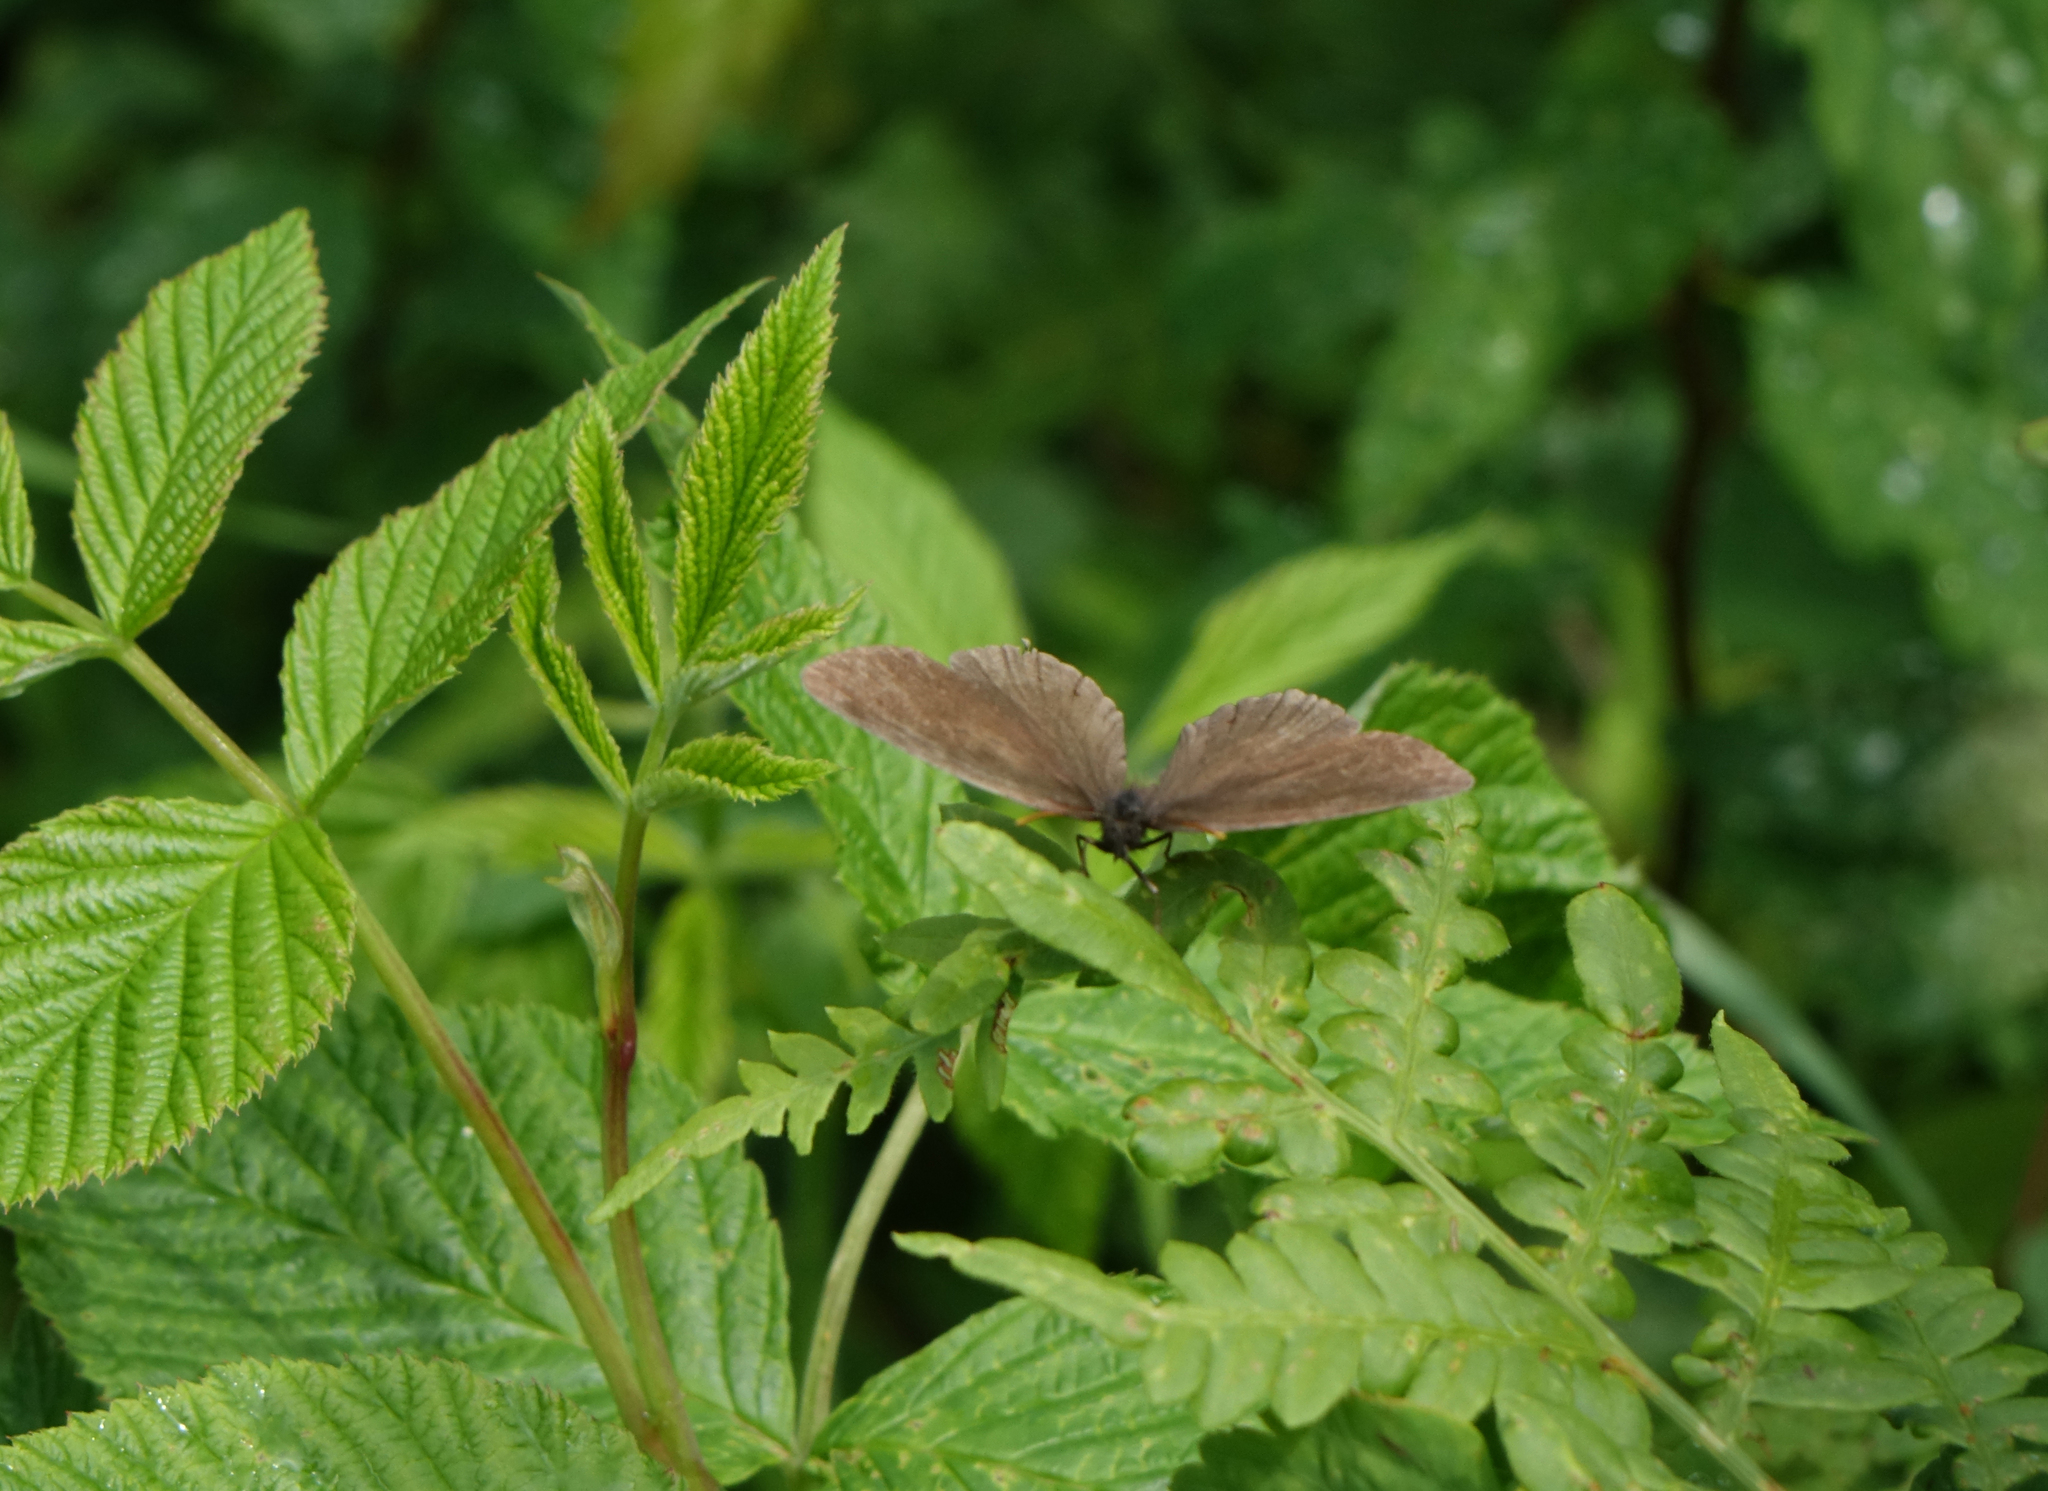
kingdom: Animalia
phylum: Arthropoda
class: Insecta
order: Lepidoptera
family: Nymphalidae
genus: Aphantopus
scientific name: Aphantopus hyperantus
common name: Ringlet
